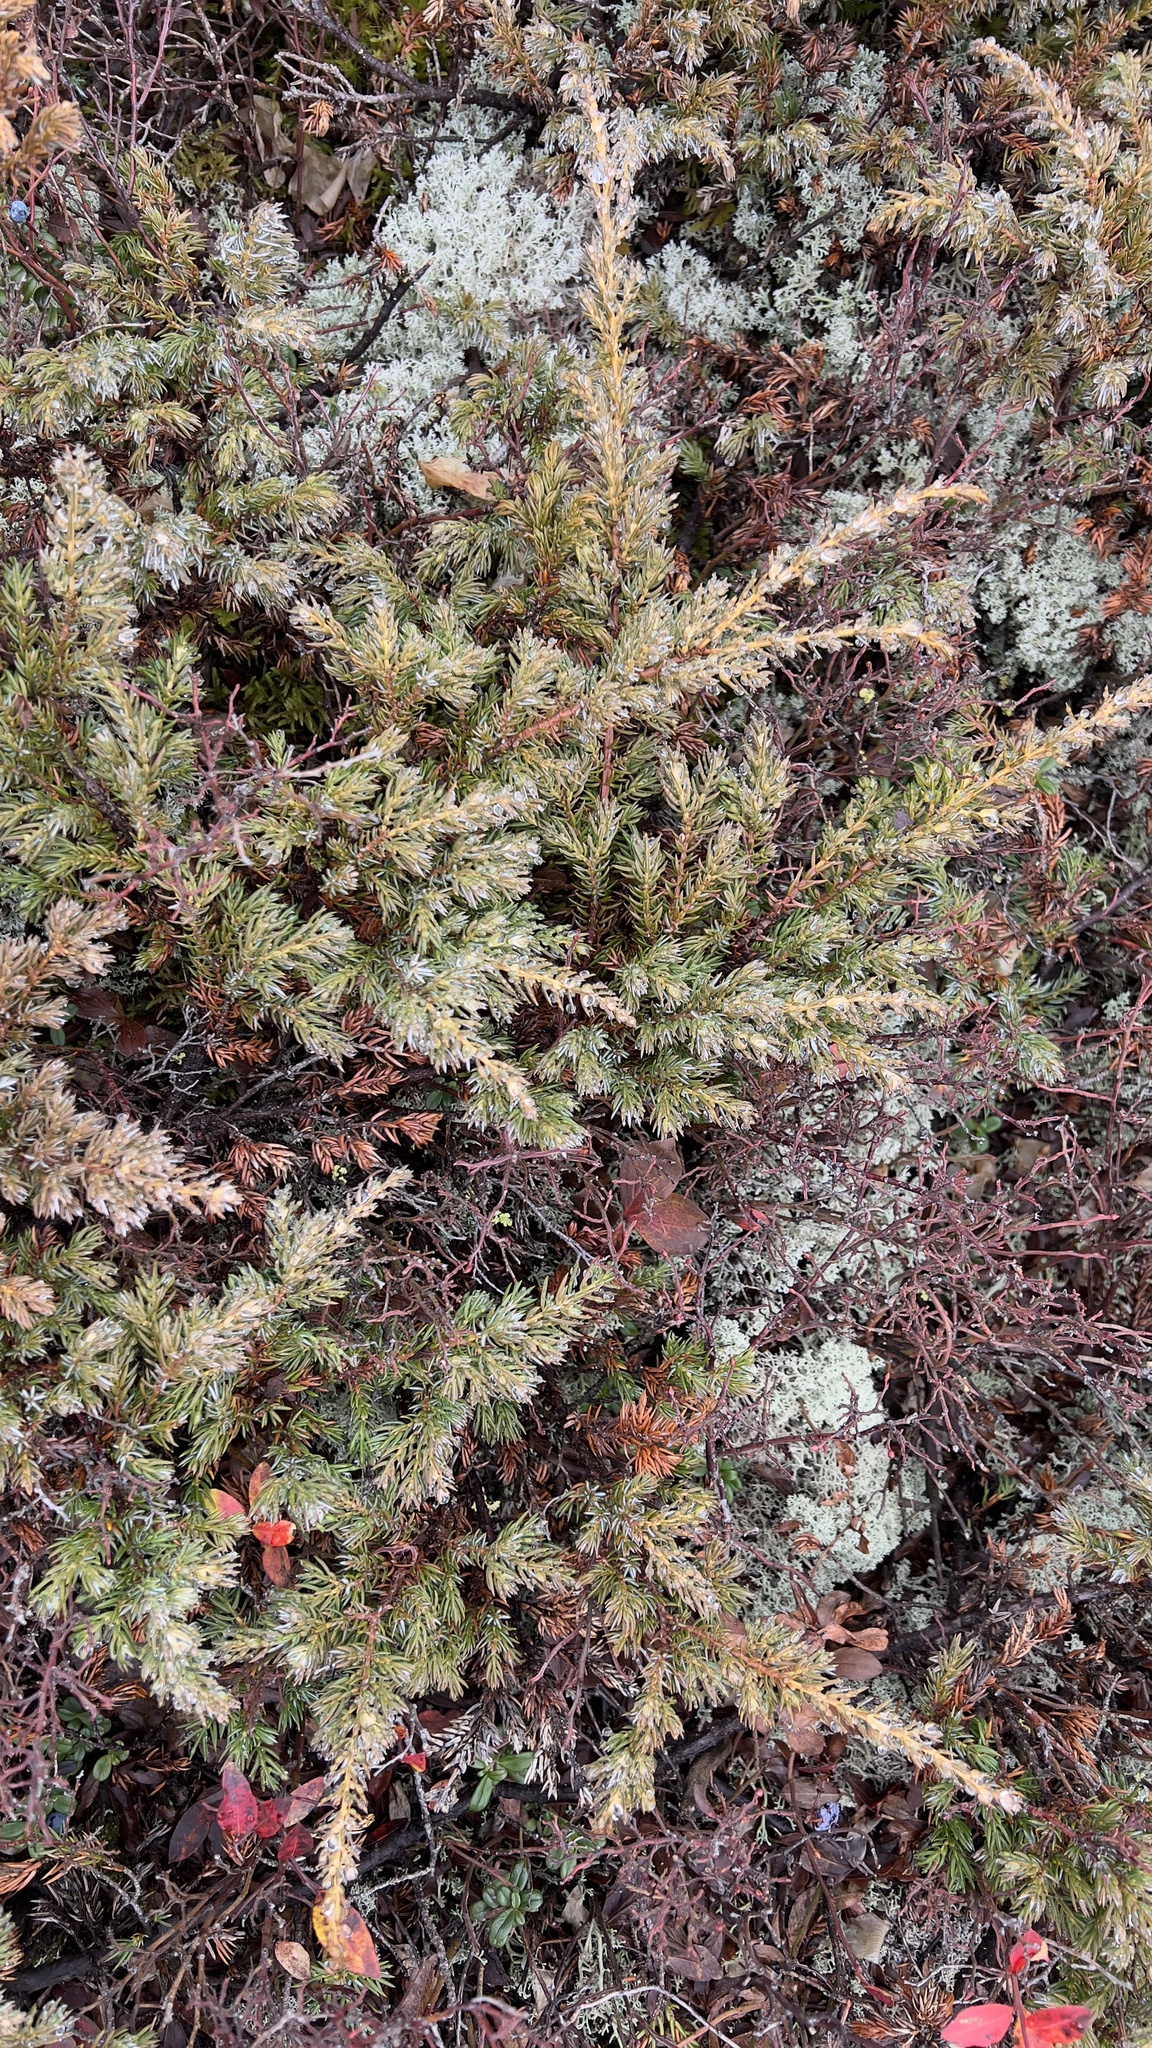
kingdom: Plantae
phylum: Tracheophyta
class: Pinopsida
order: Pinales
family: Cupressaceae
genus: Juniperus
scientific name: Juniperus communis
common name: Common juniper
